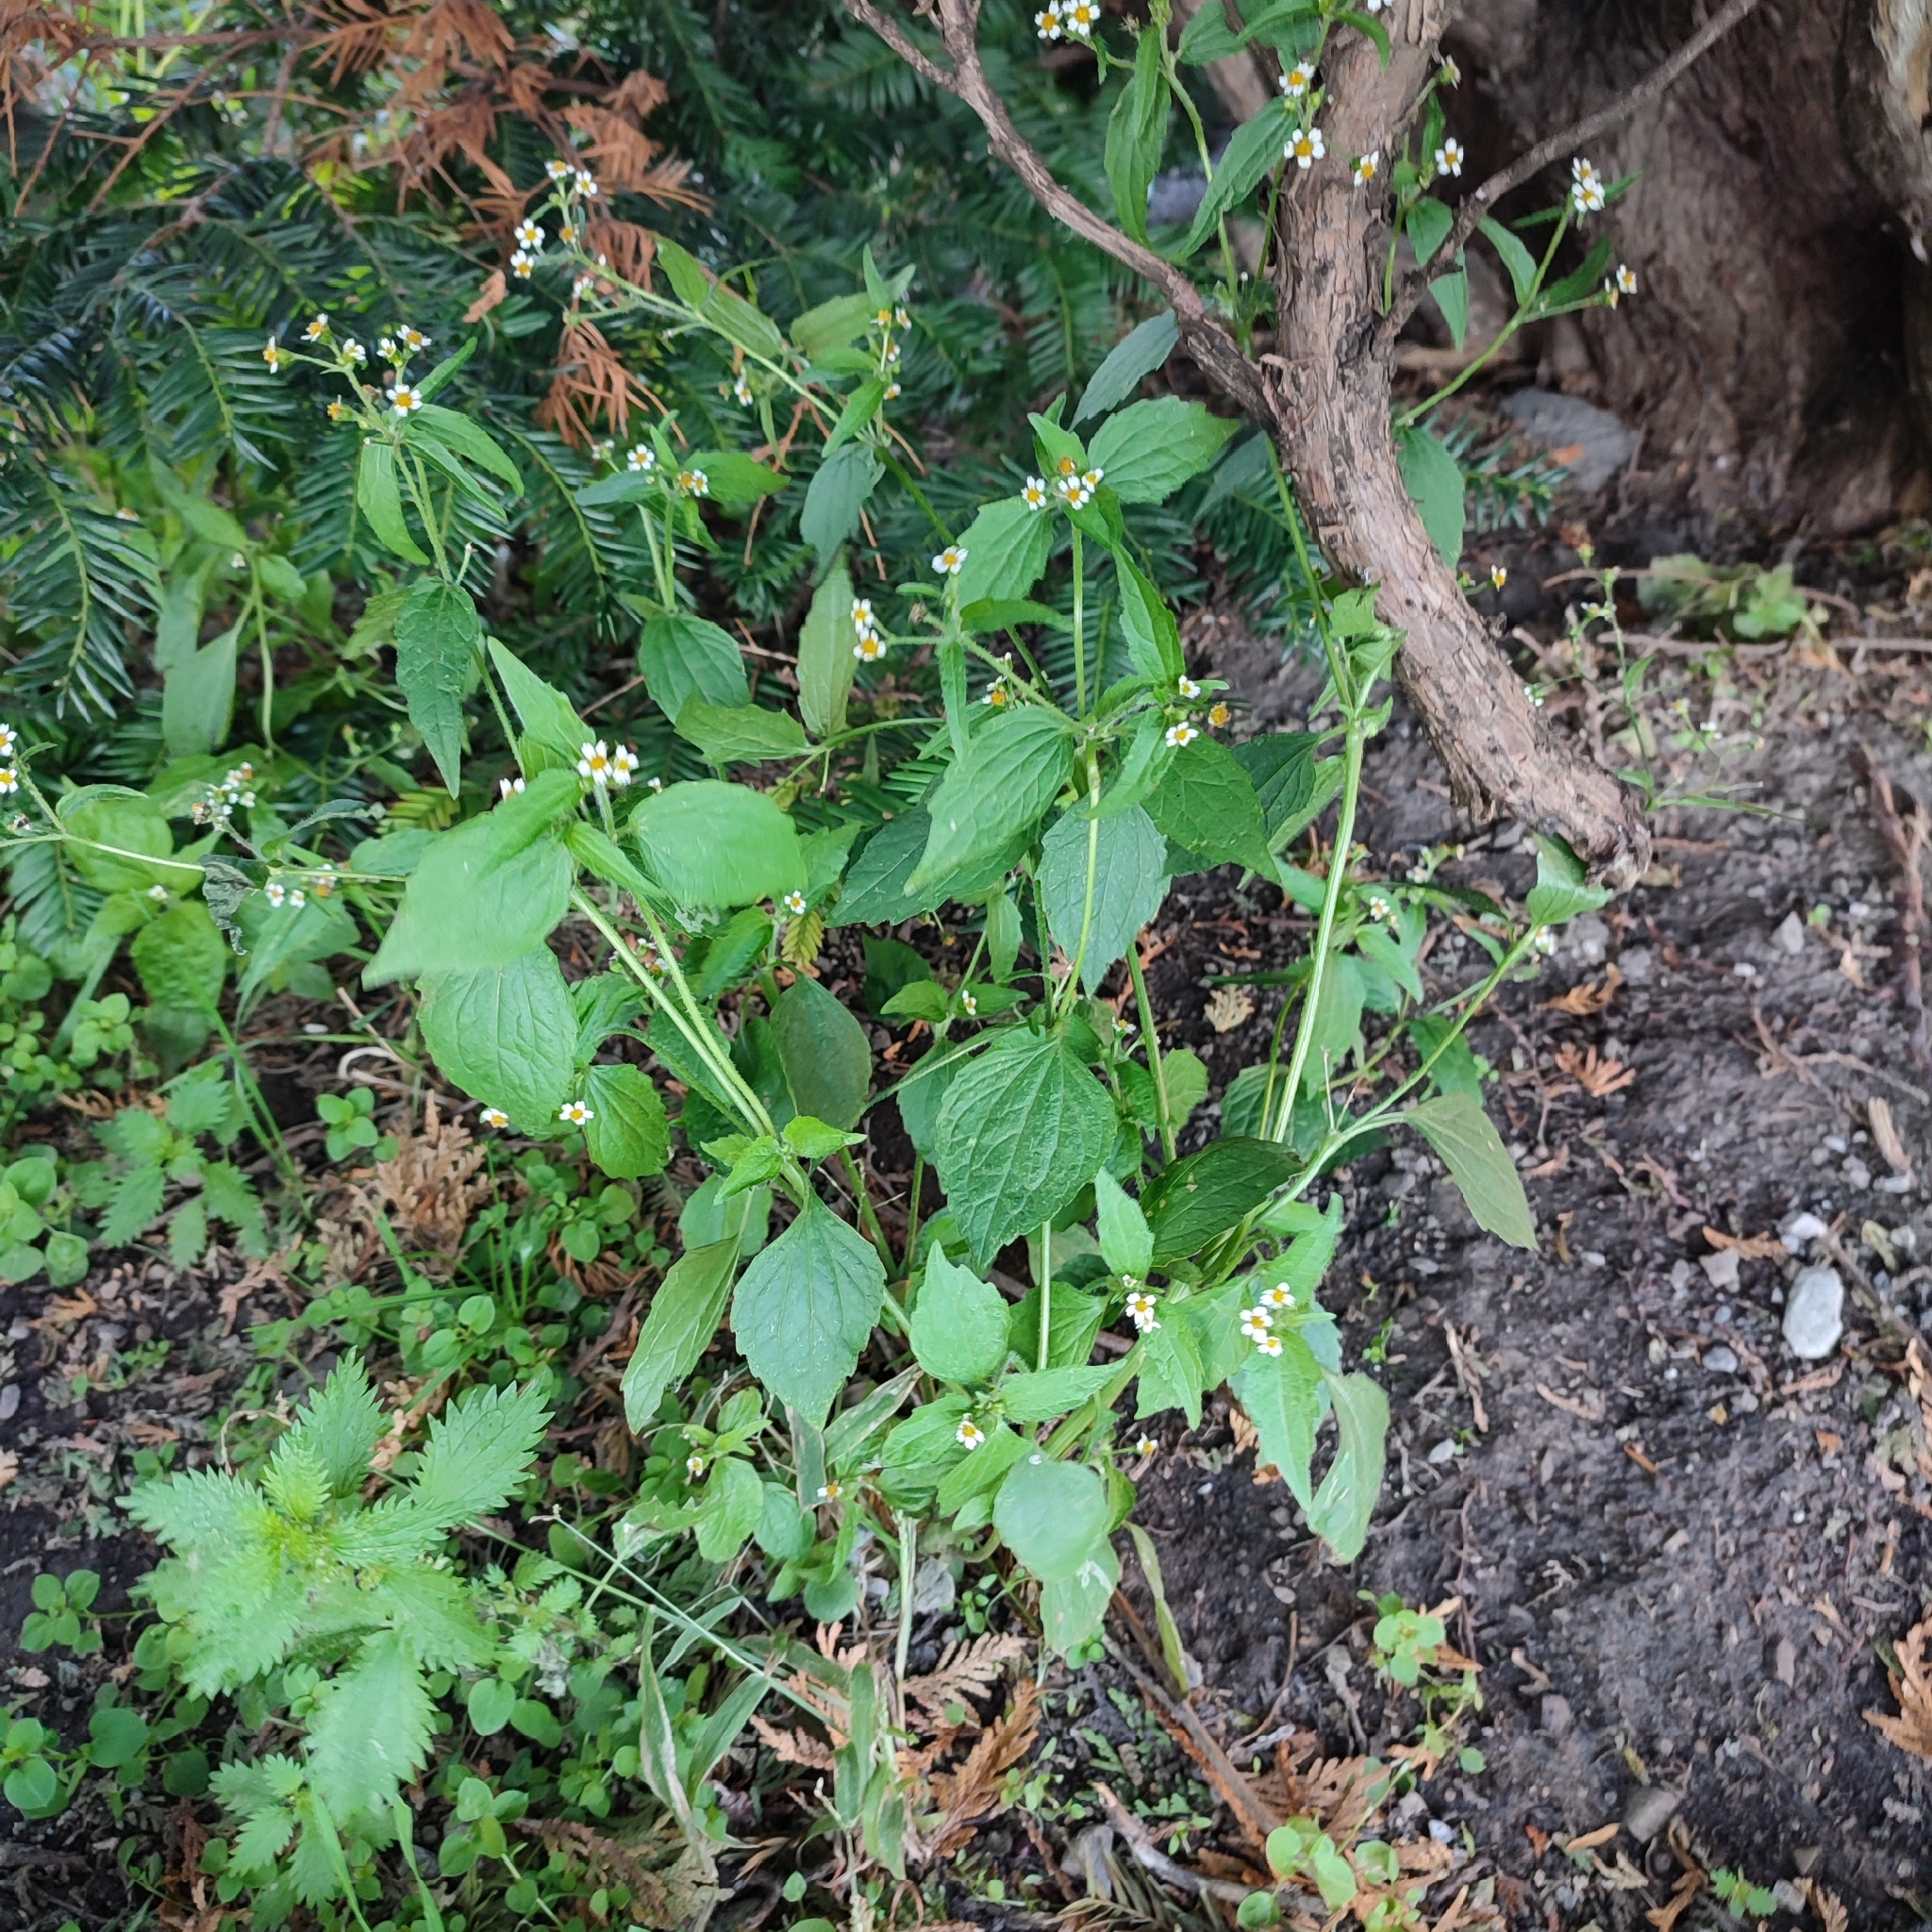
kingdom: Plantae
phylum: Tracheophyta
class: Magnoliopsida
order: Asterales
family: Asteraceae
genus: Galinsoga
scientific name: Galinsoga quadriradiata
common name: Shaggy soldier
